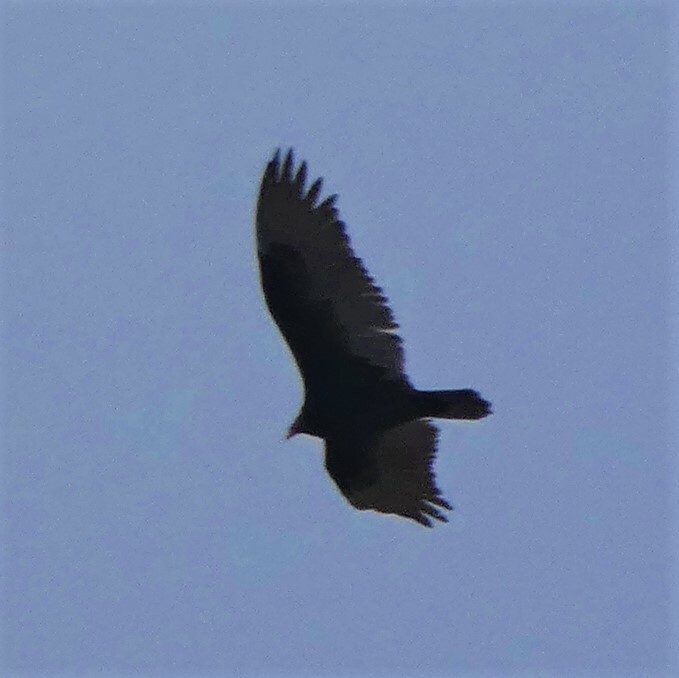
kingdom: Animalia
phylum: Chordata
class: Aves
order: Accipitriformes
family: Cathartidae
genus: Cathartes
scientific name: Cathartes aura
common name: Turkey vulture
